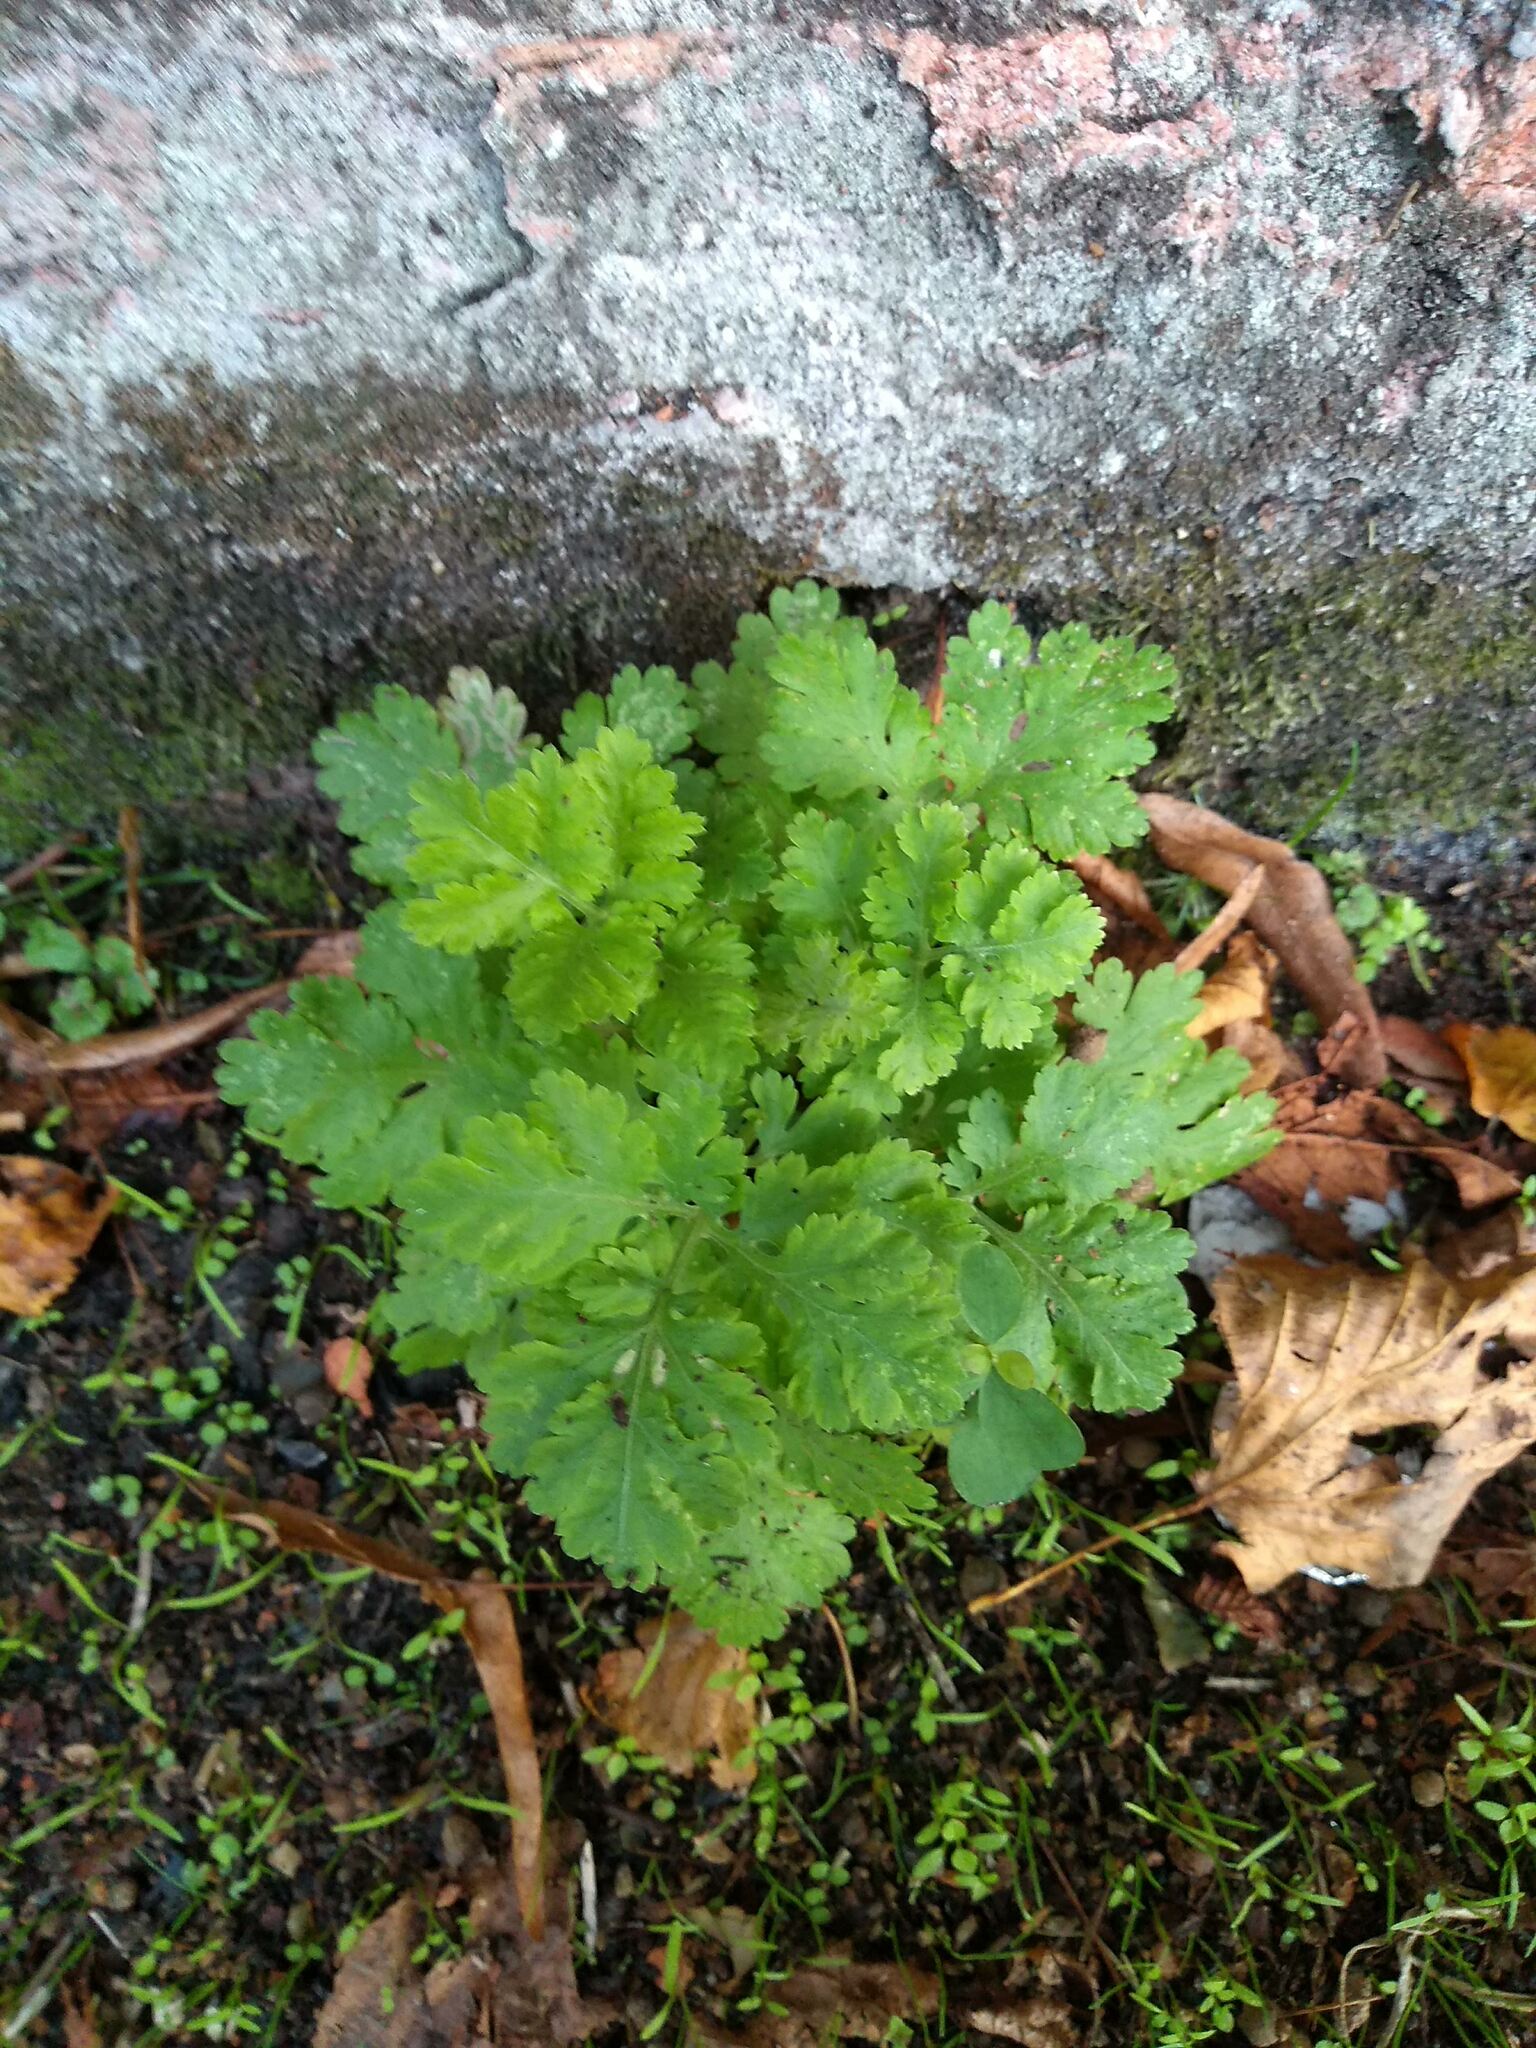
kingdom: Plantae
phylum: Tracheophyta
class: Magnoliopsida
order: Asterales
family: Asteraceae
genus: Tanacetum
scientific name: Tanacetum parthenium
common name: Feverfew
